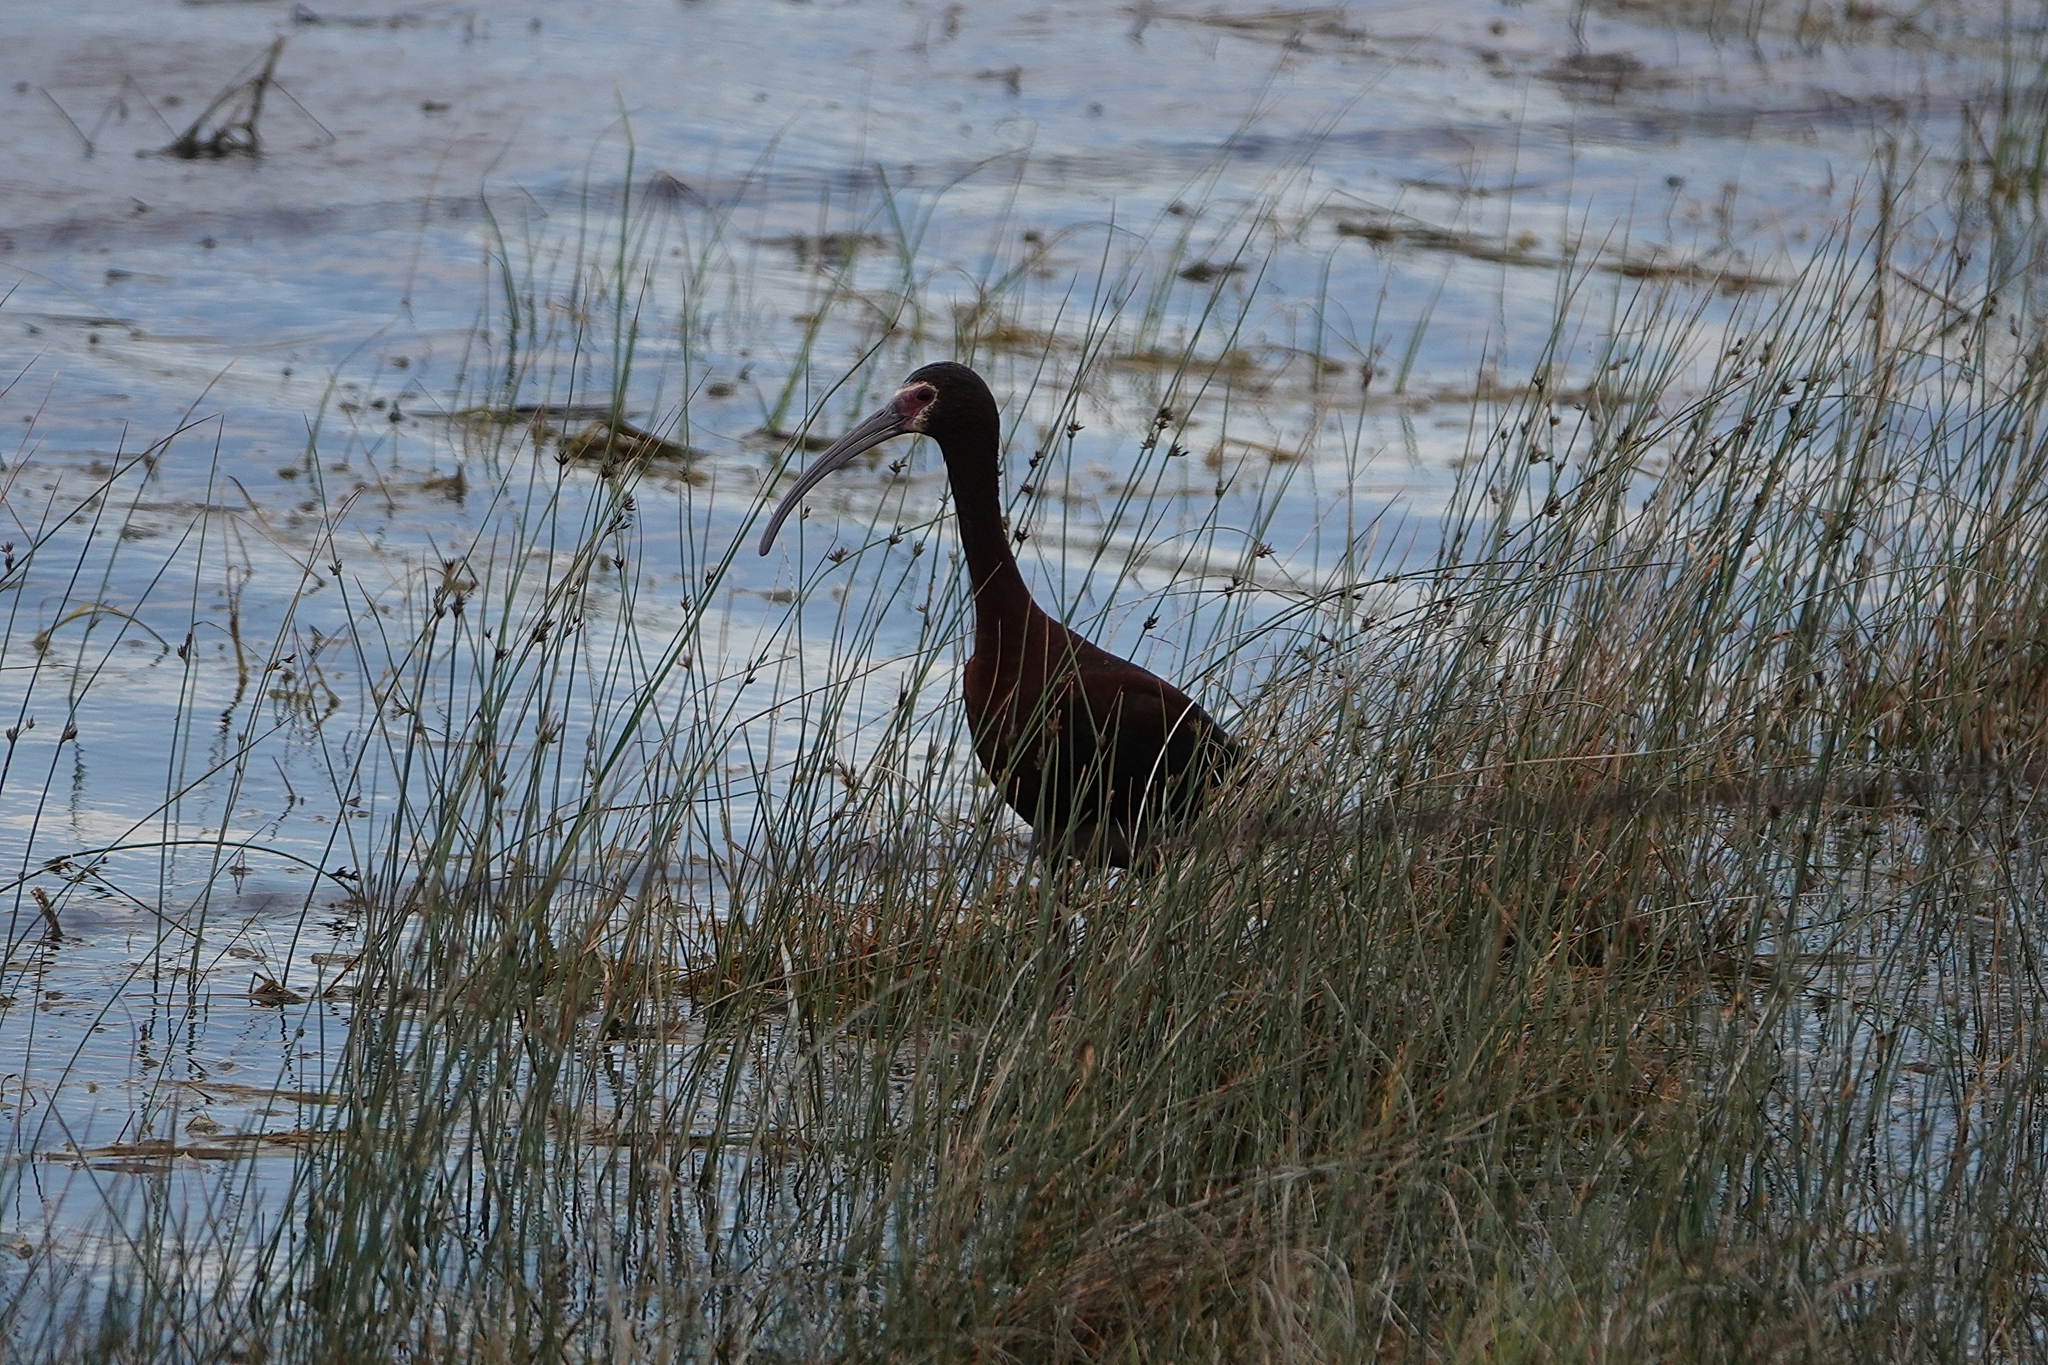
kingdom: Animalia
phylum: Chordata
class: Aves
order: Pelecaniformes
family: Threskiornithidae
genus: Plegadis
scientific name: Plegadis chihi
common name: White-faced ibis
